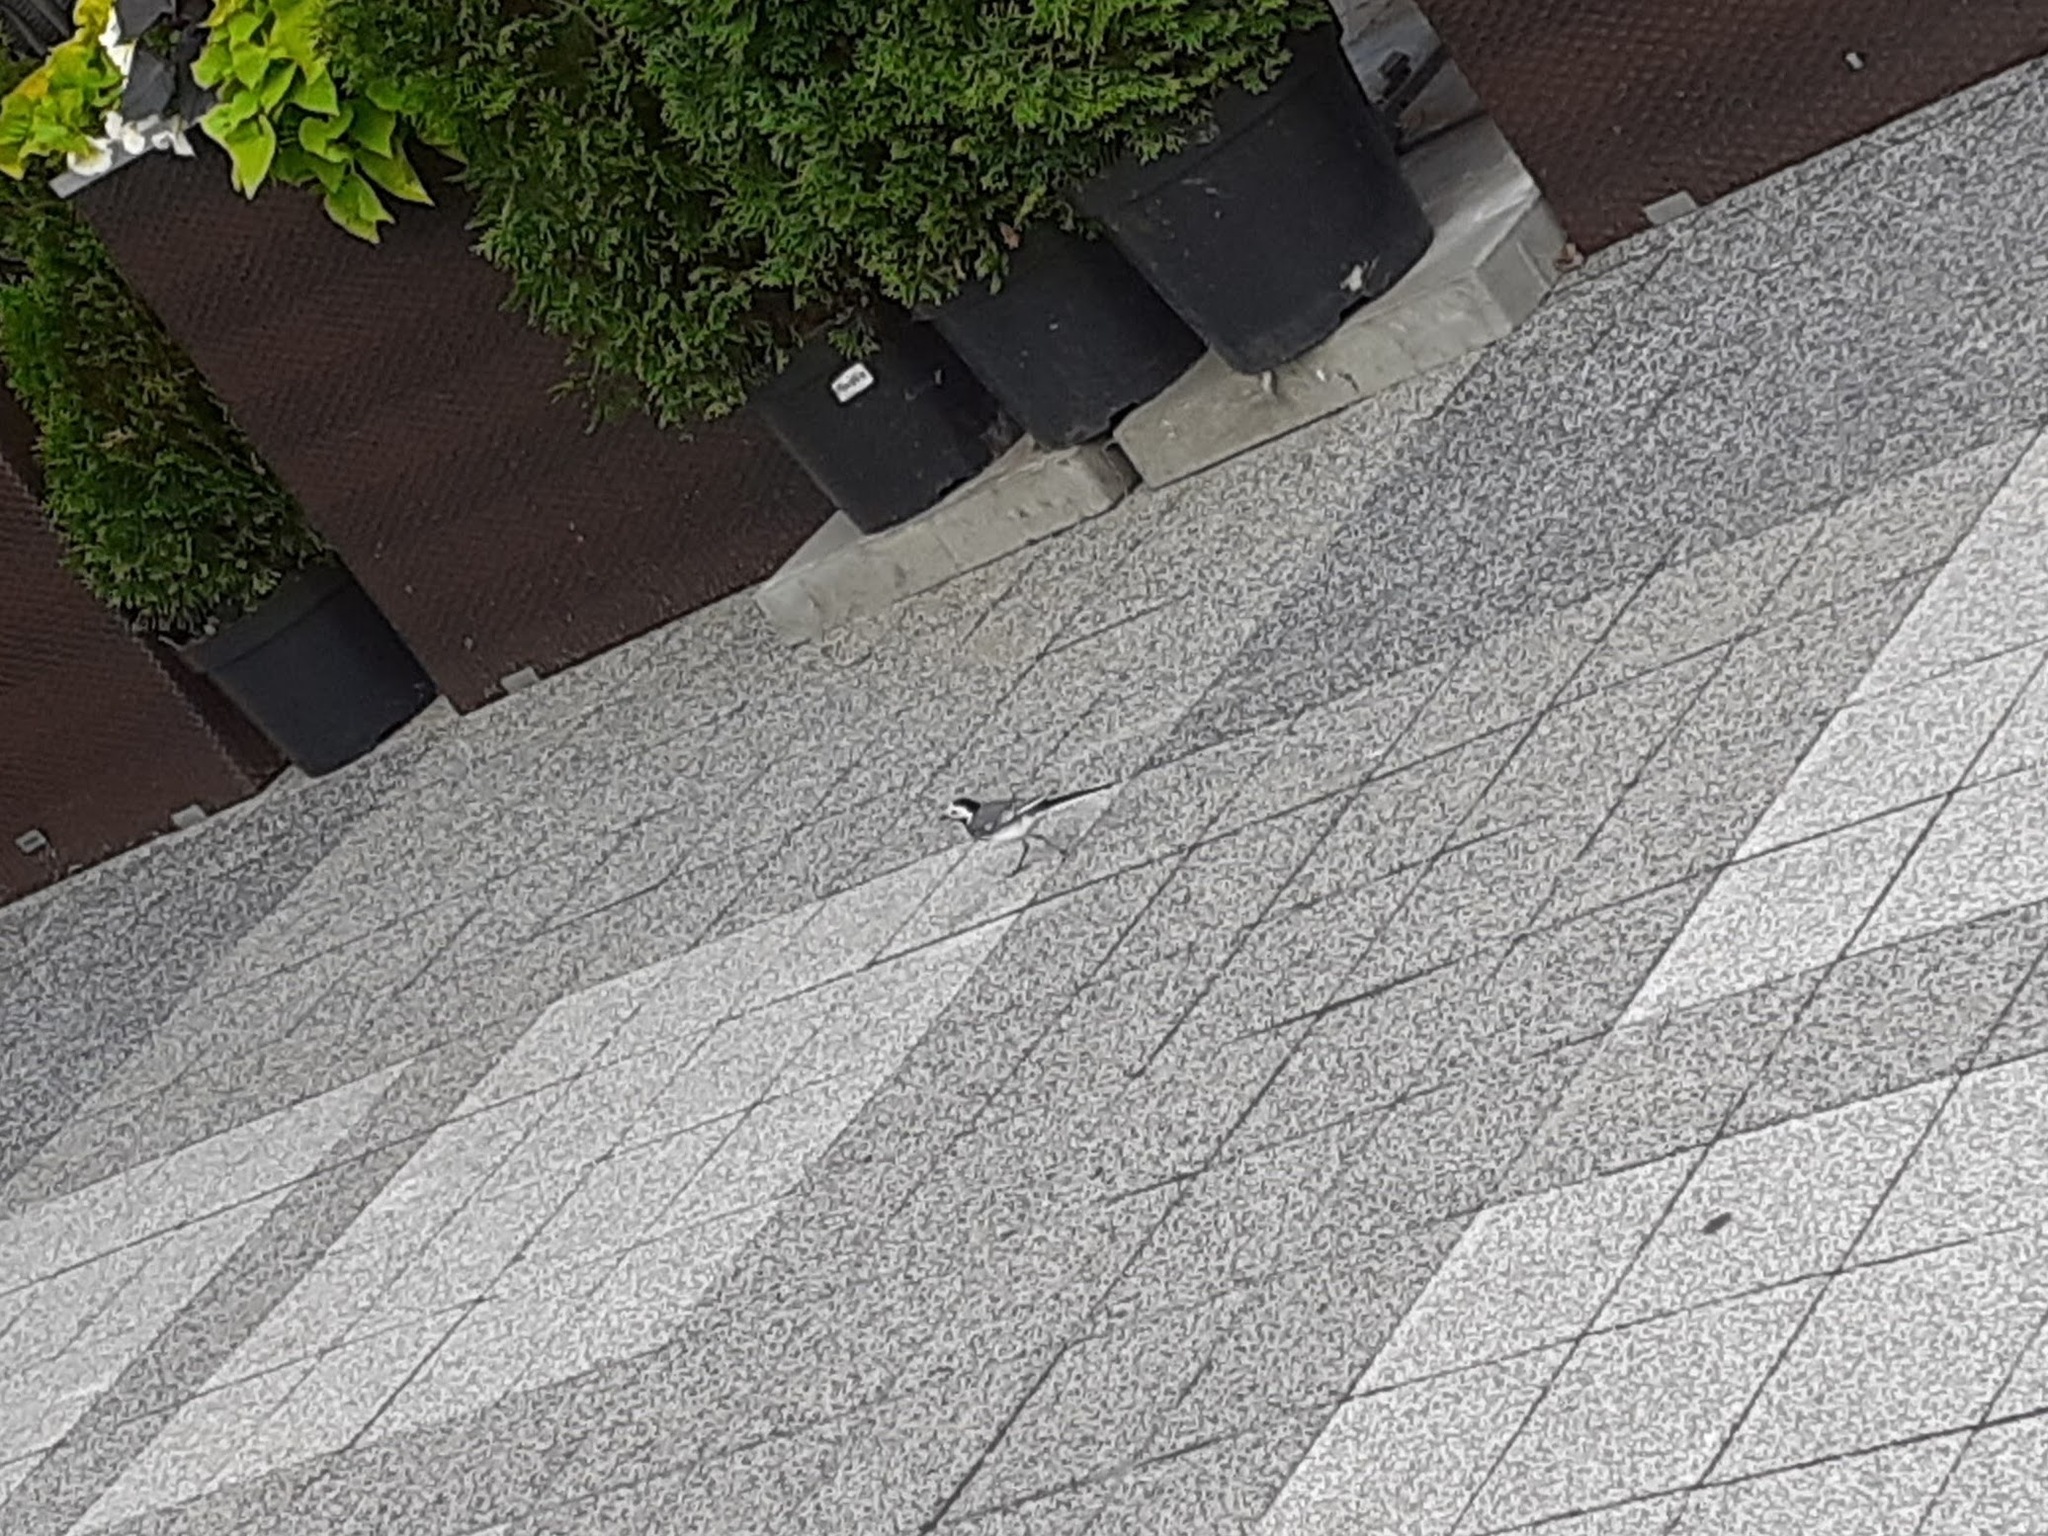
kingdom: Animalia
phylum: Chordata
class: Aves
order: Passeriformes
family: Motacillidae
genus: Motacilla
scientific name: Motacilla alba
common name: White wagtail
